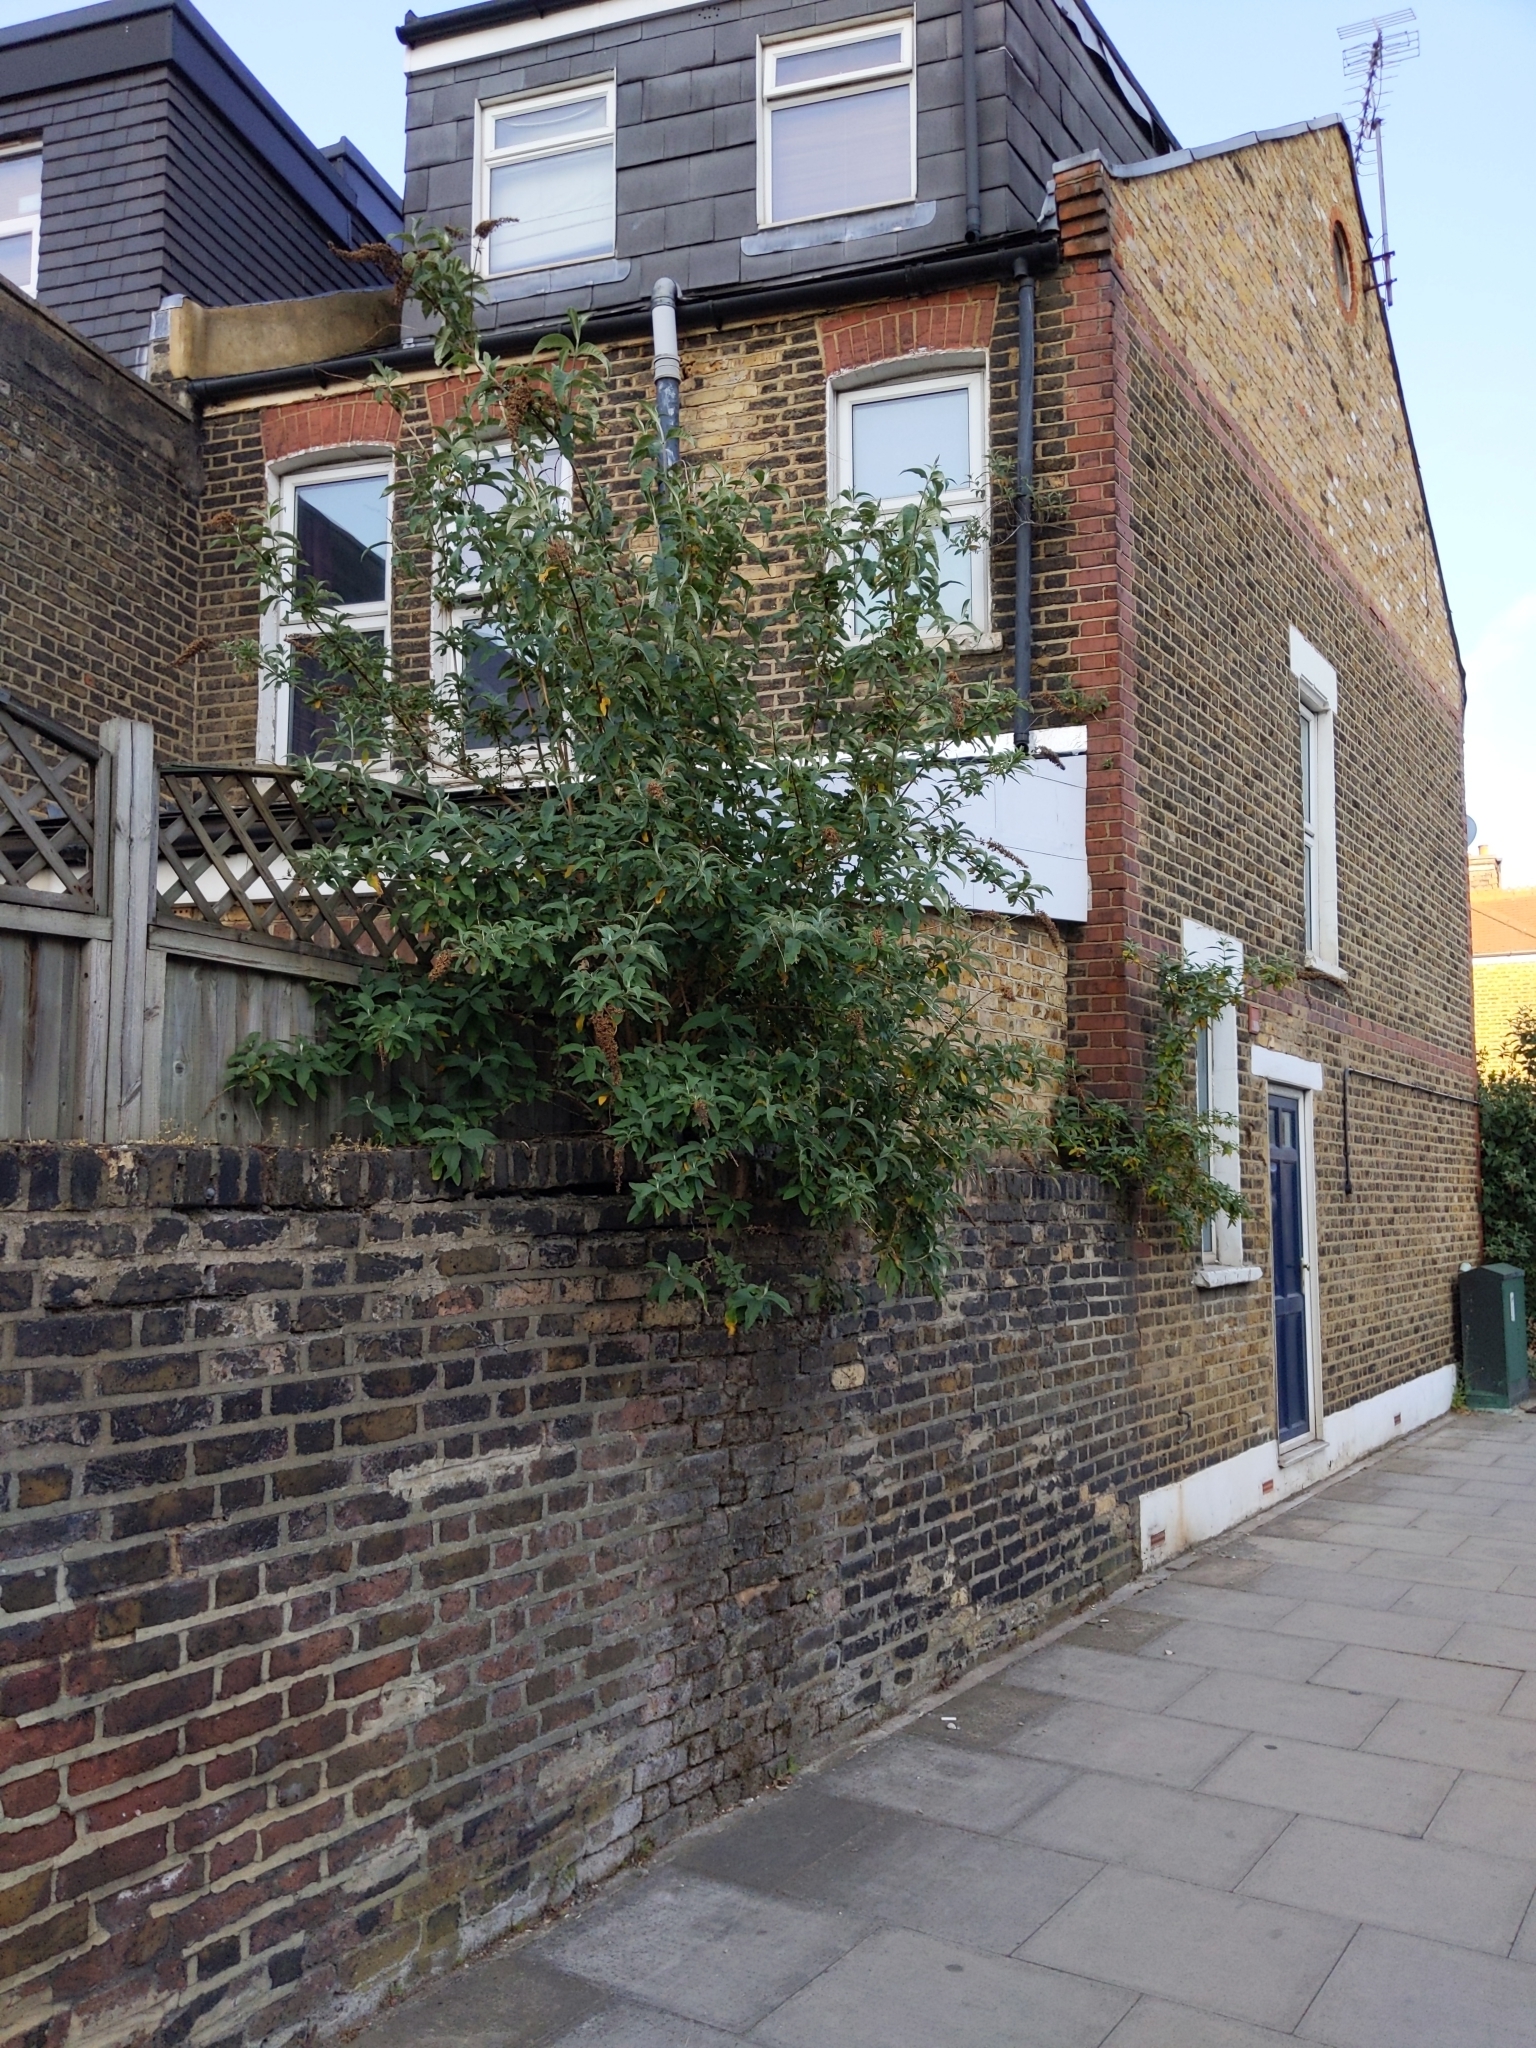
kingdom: Plantae
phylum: Tracheophyta
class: Magnoliopsida
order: Lamiales
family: Scrophulariaceae
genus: Buddleja
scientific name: Buddleja davidii
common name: Butterfly-bush
